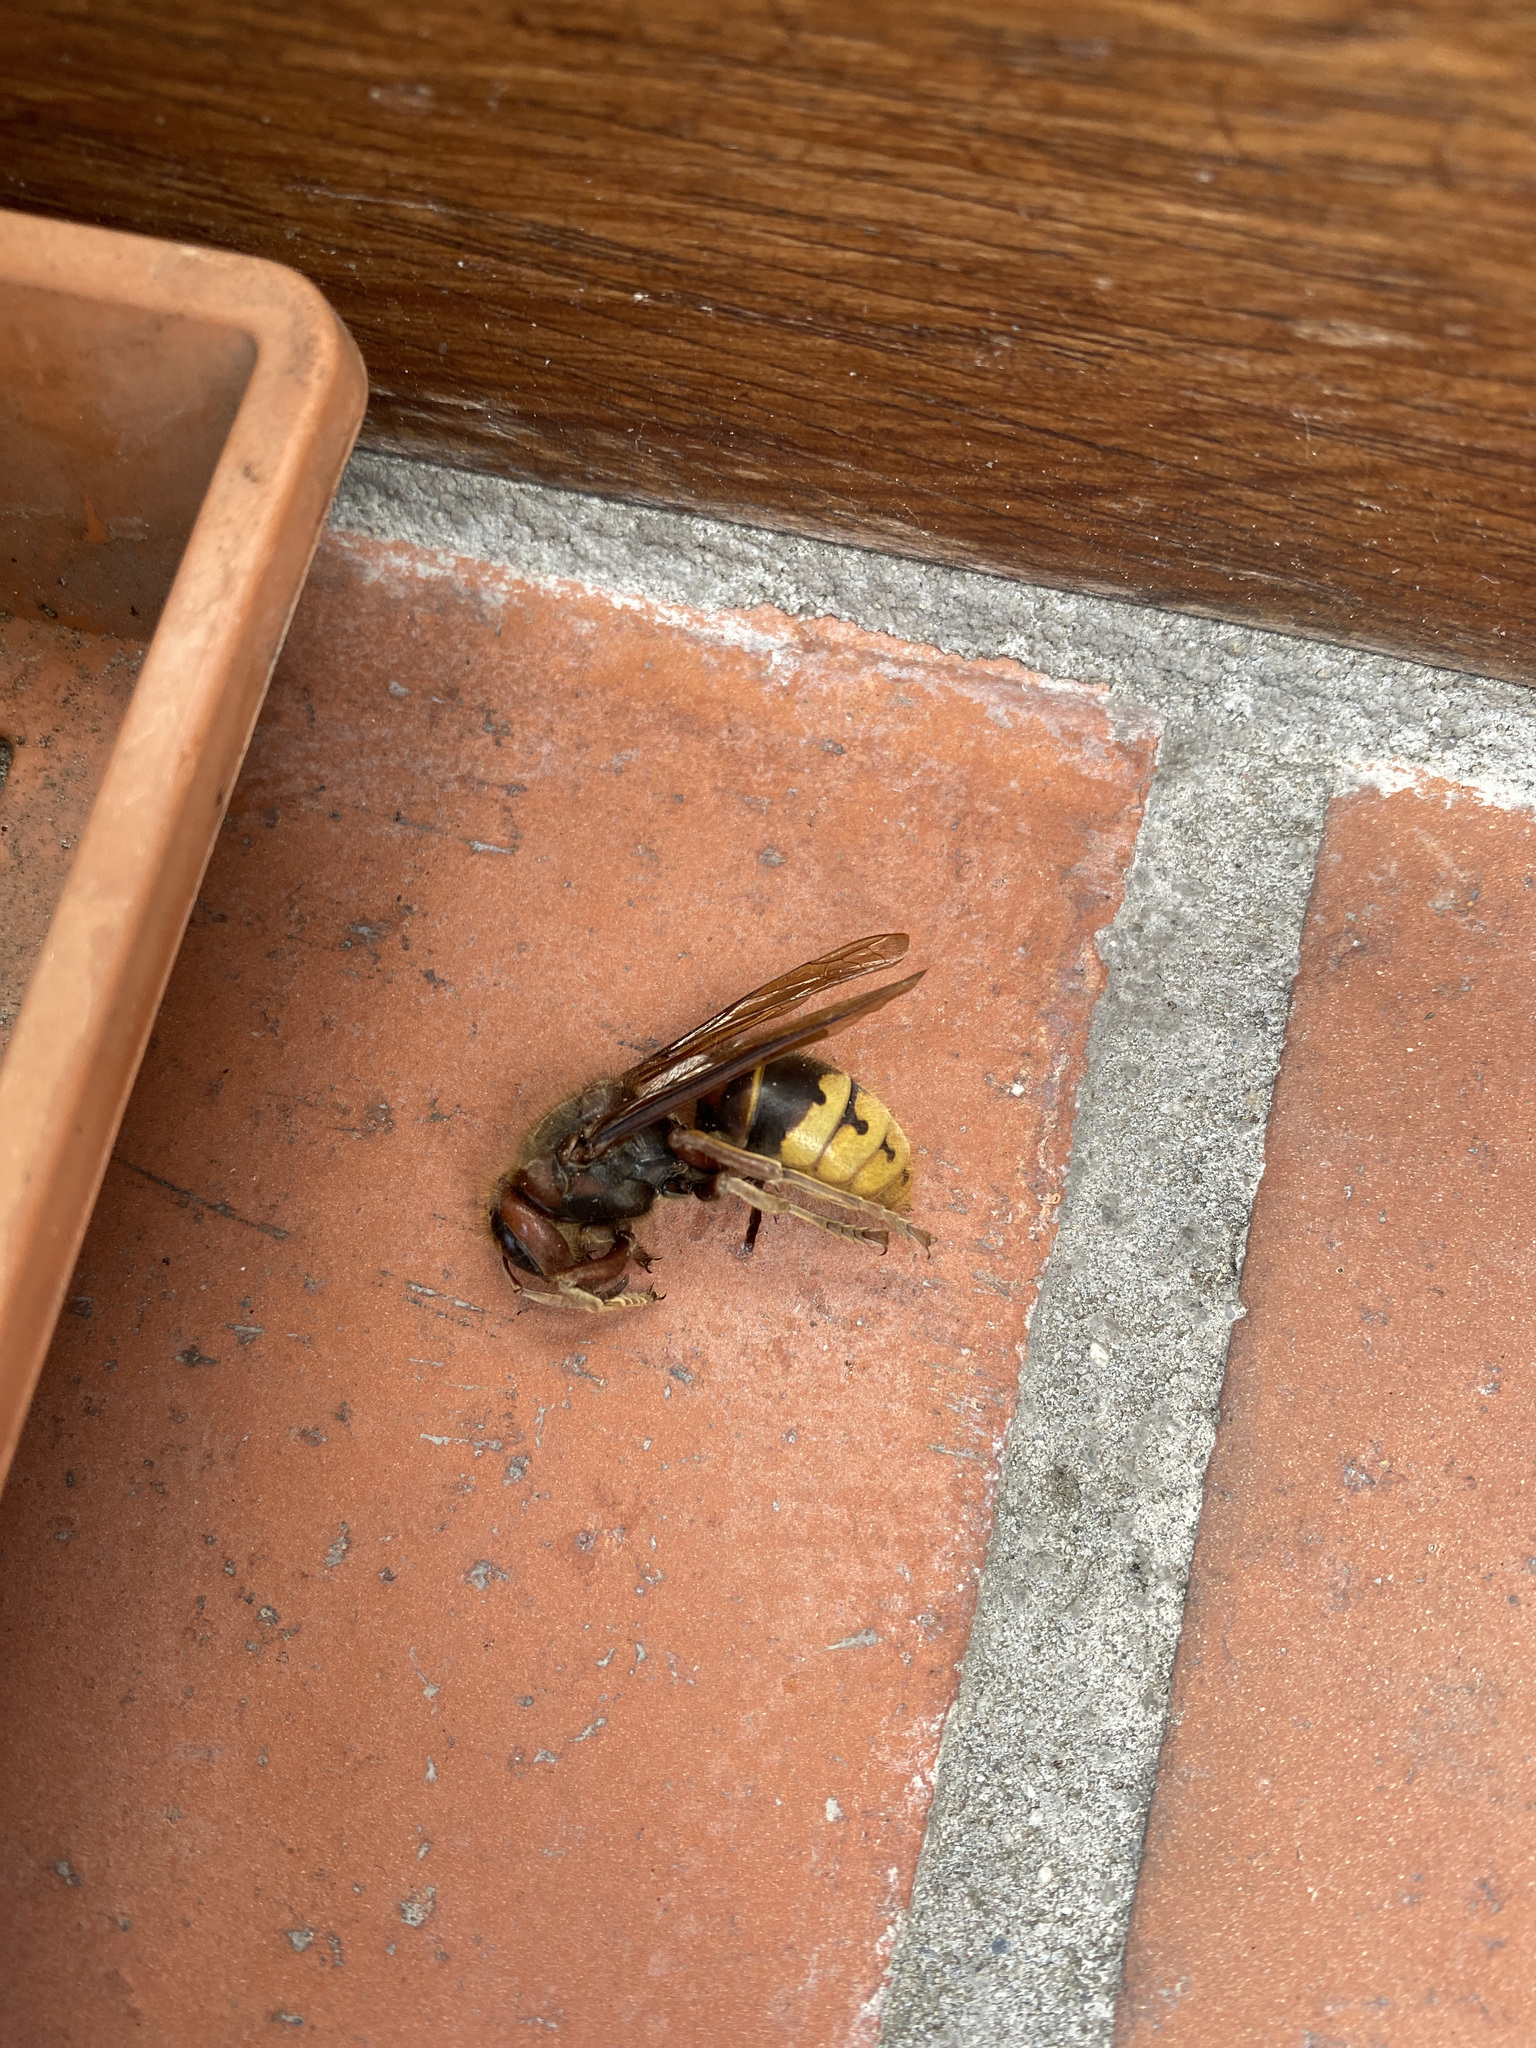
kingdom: Animalia
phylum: Arthropoda
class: Insecta
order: Hymenoptera
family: Vespidae
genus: Vespa
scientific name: Vespa crabro
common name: Hornet
